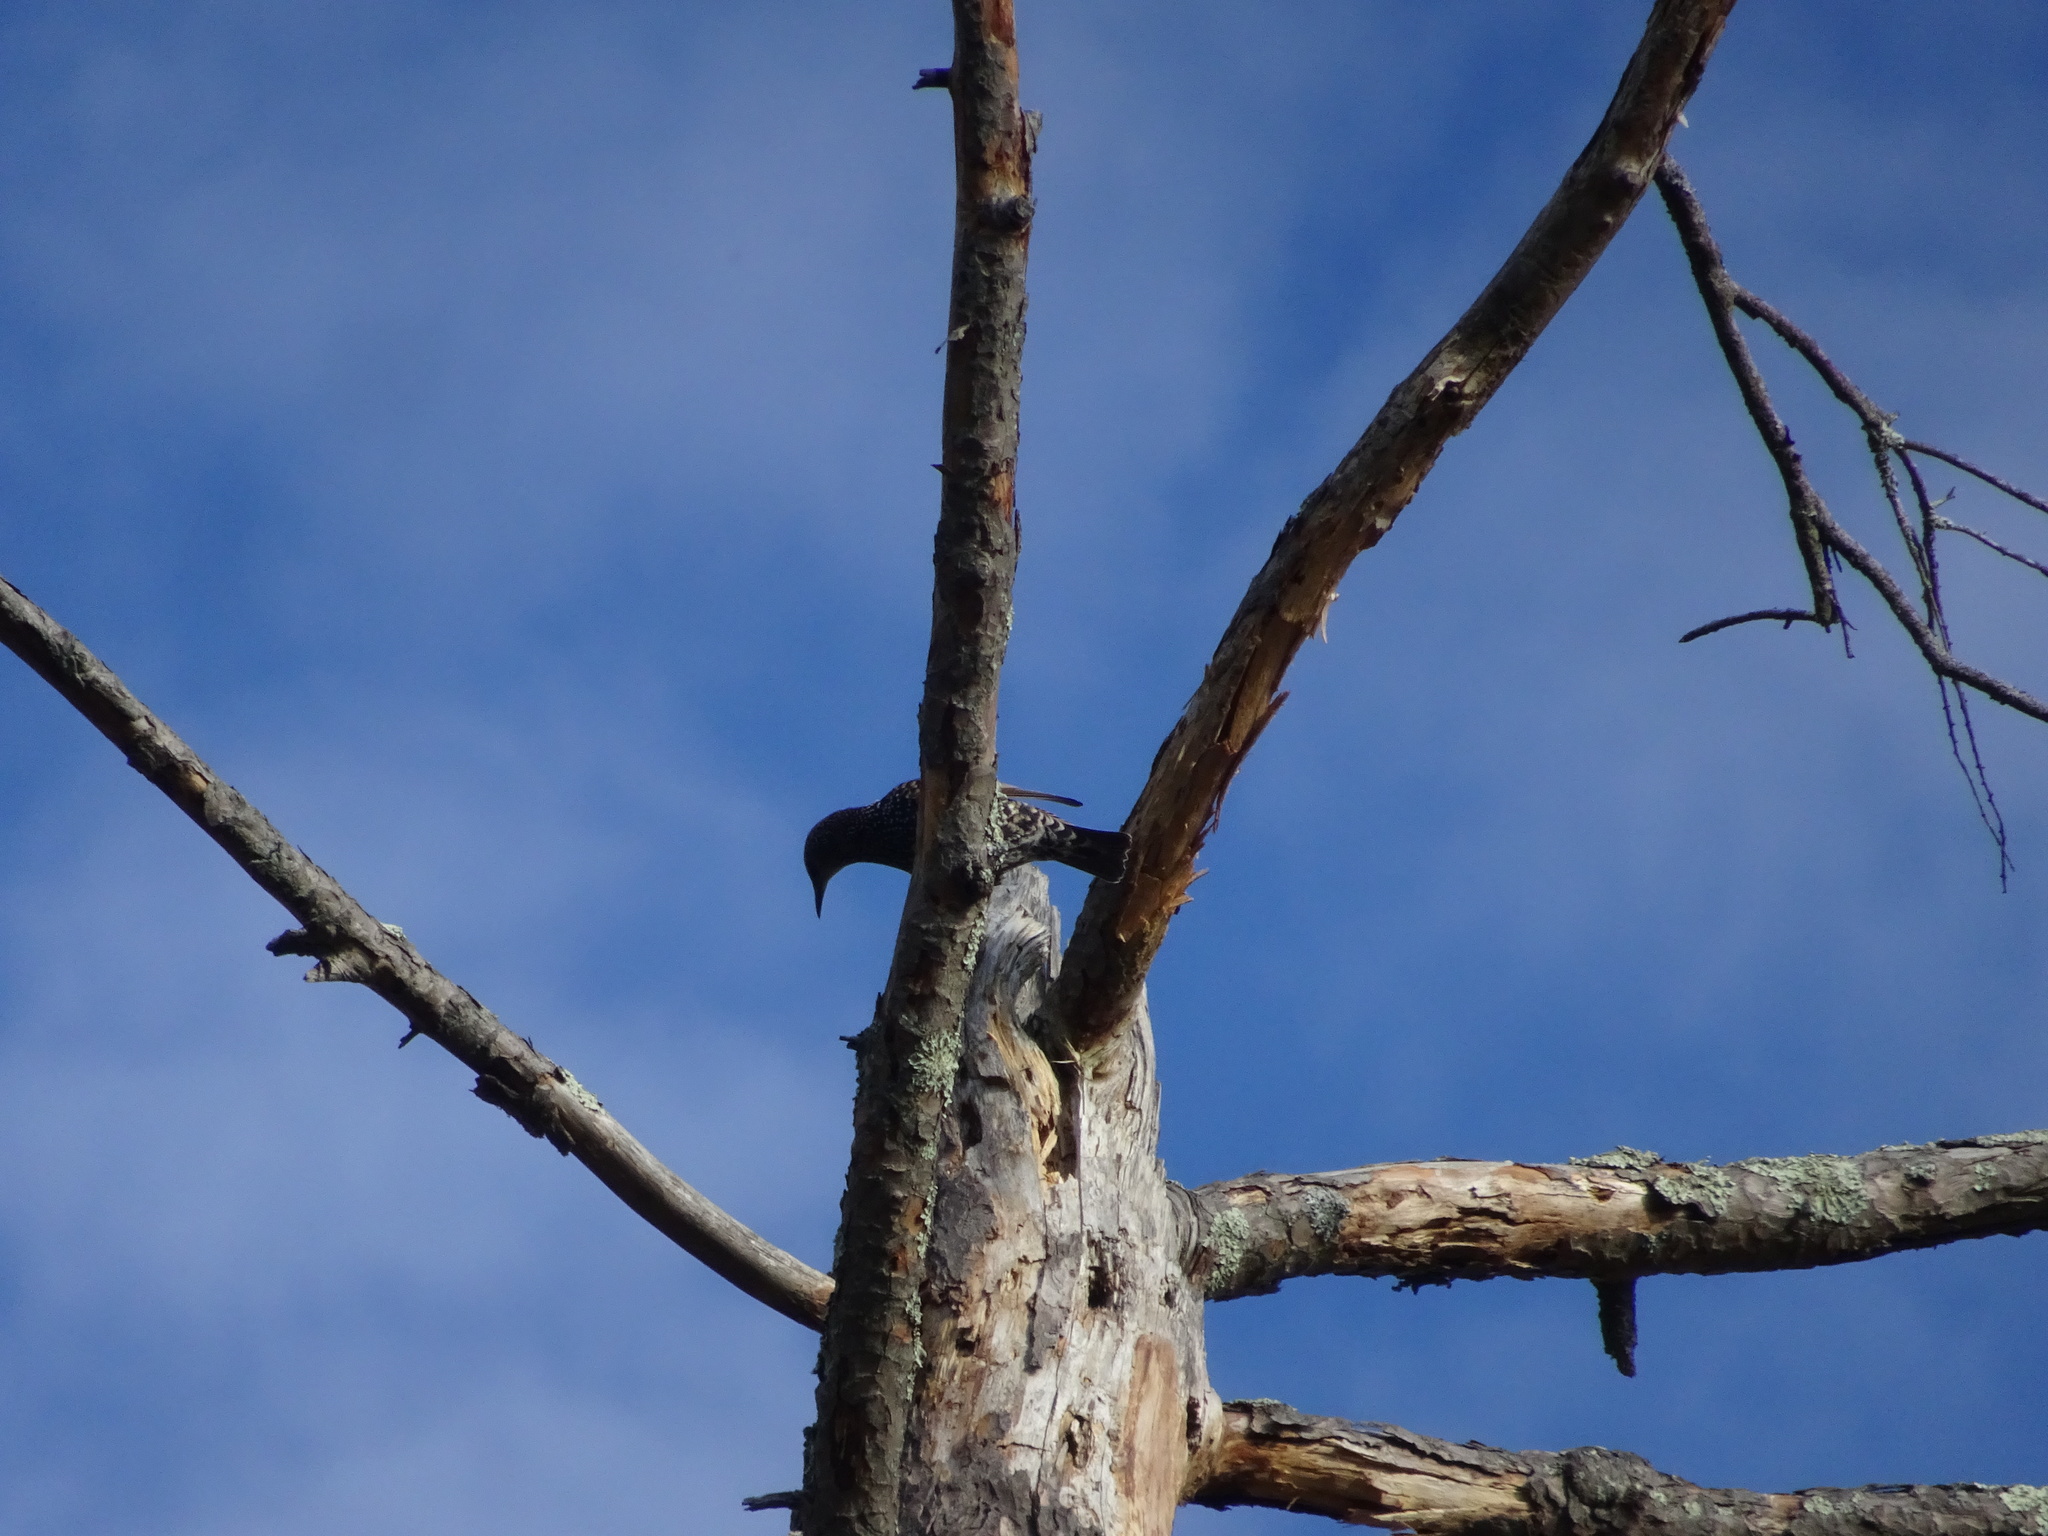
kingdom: Animalia
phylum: Chordata
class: Aves
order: Passeriformes
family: Sturnidae
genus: Sturnus
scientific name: Sturnus vulgaris
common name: Common starling
